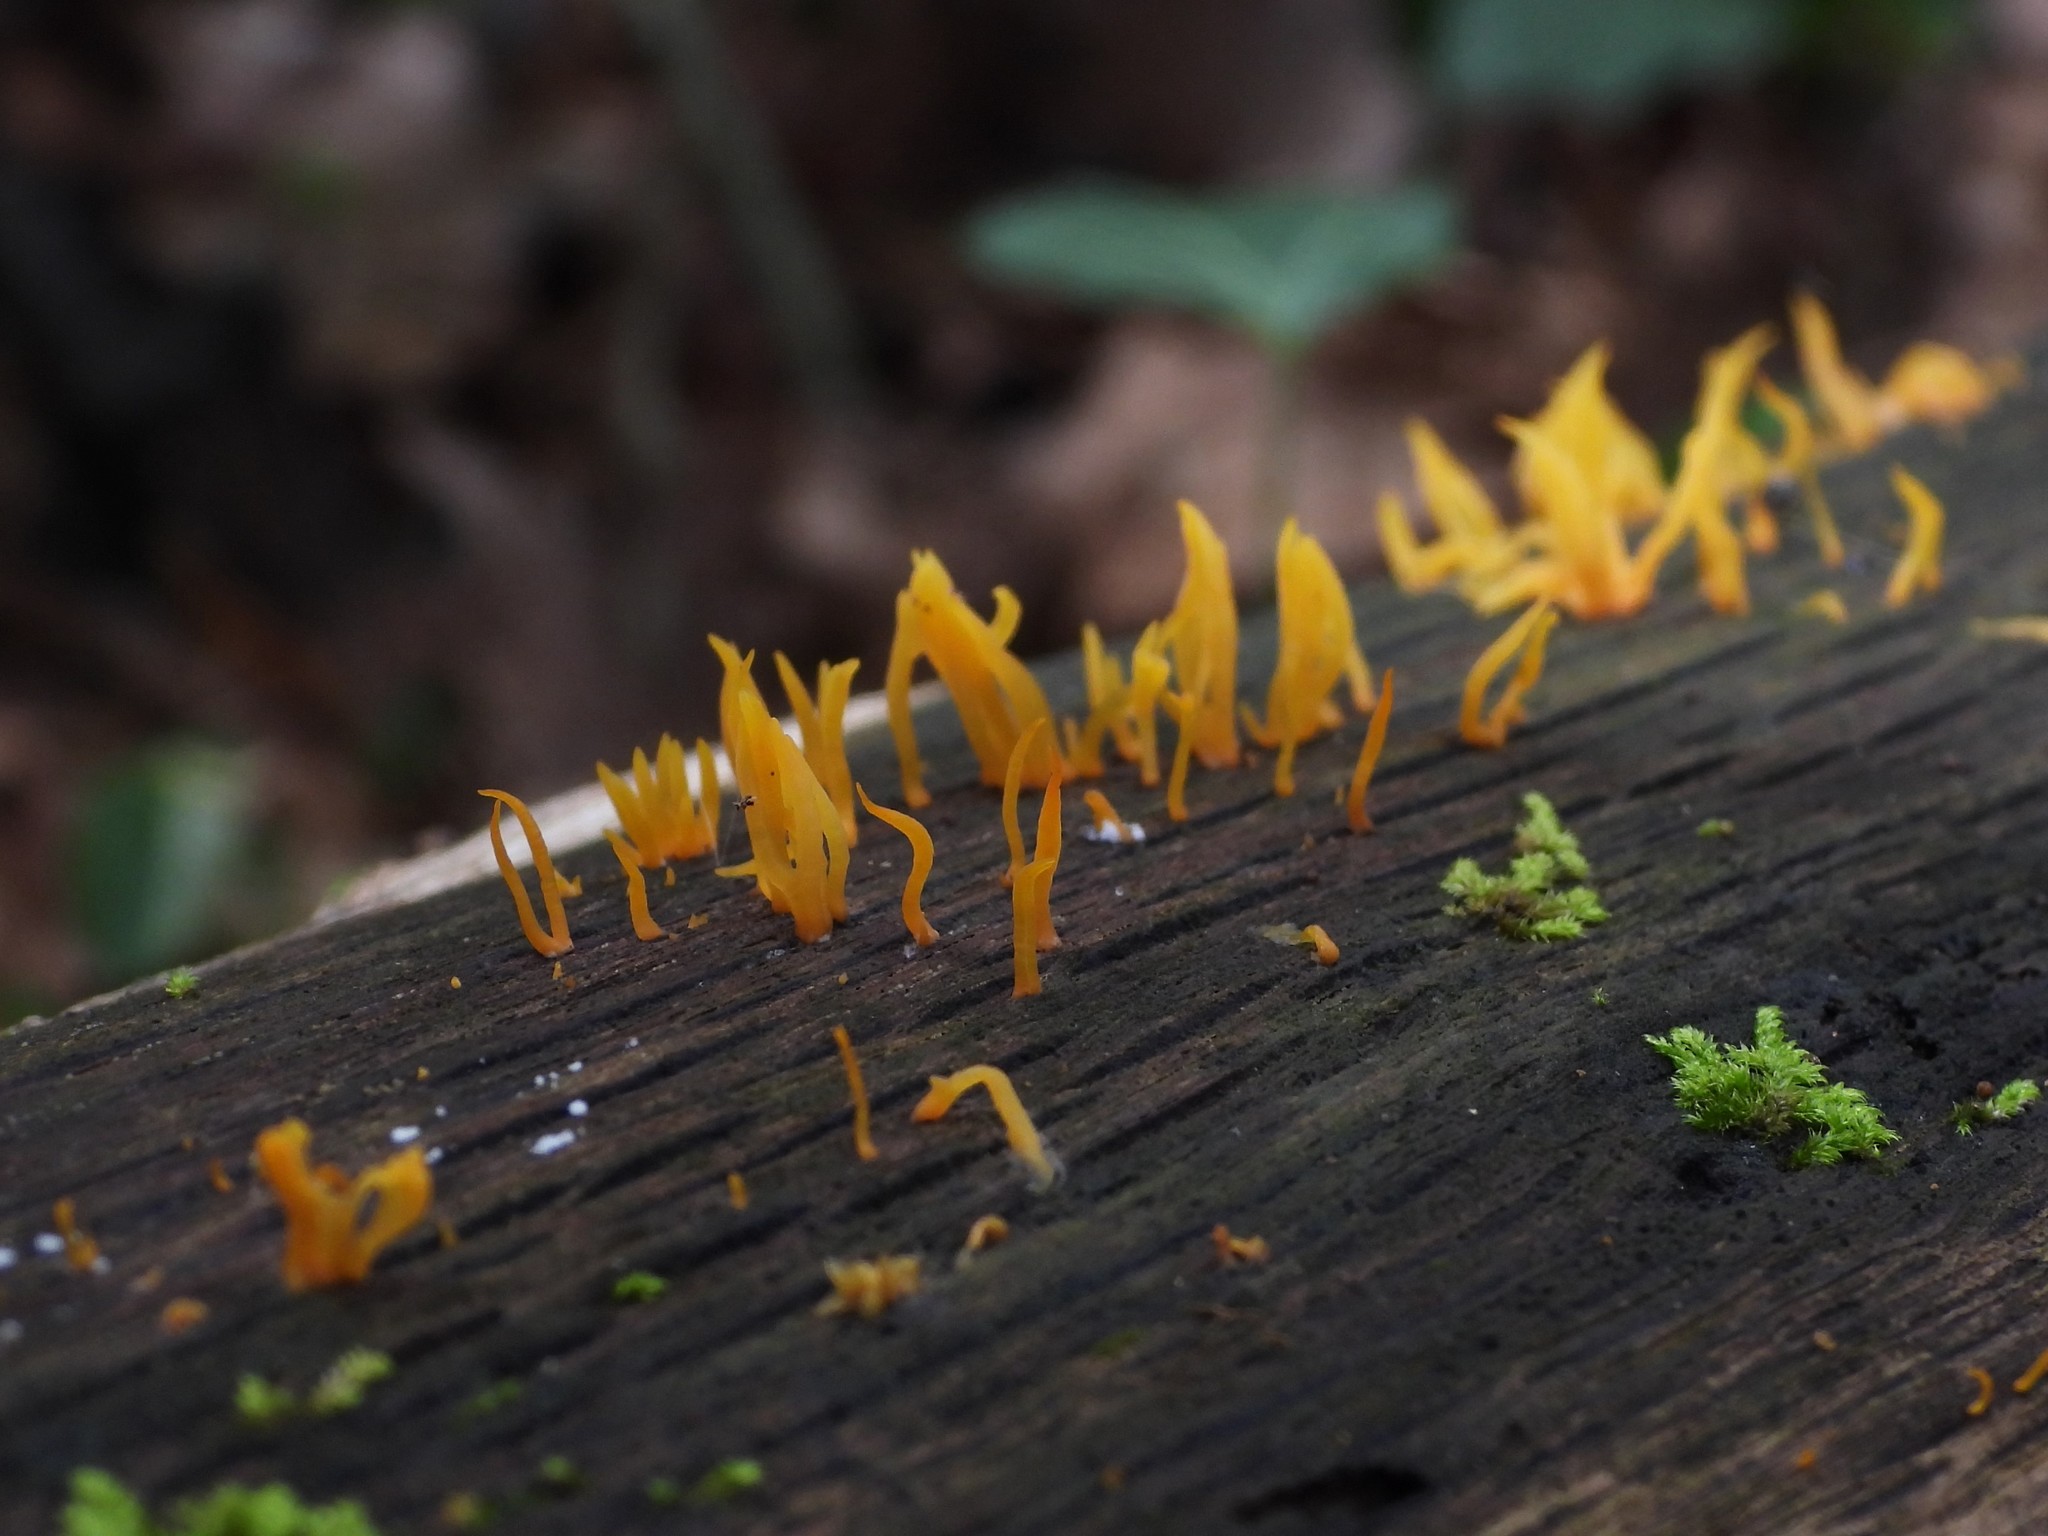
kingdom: Fungi
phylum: Basidiomycota
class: Dacrymycetes
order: Dacrymycetales
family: Dacrymycetaceae
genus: Calocera
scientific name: Calocera cornea
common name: Small stagshorn
